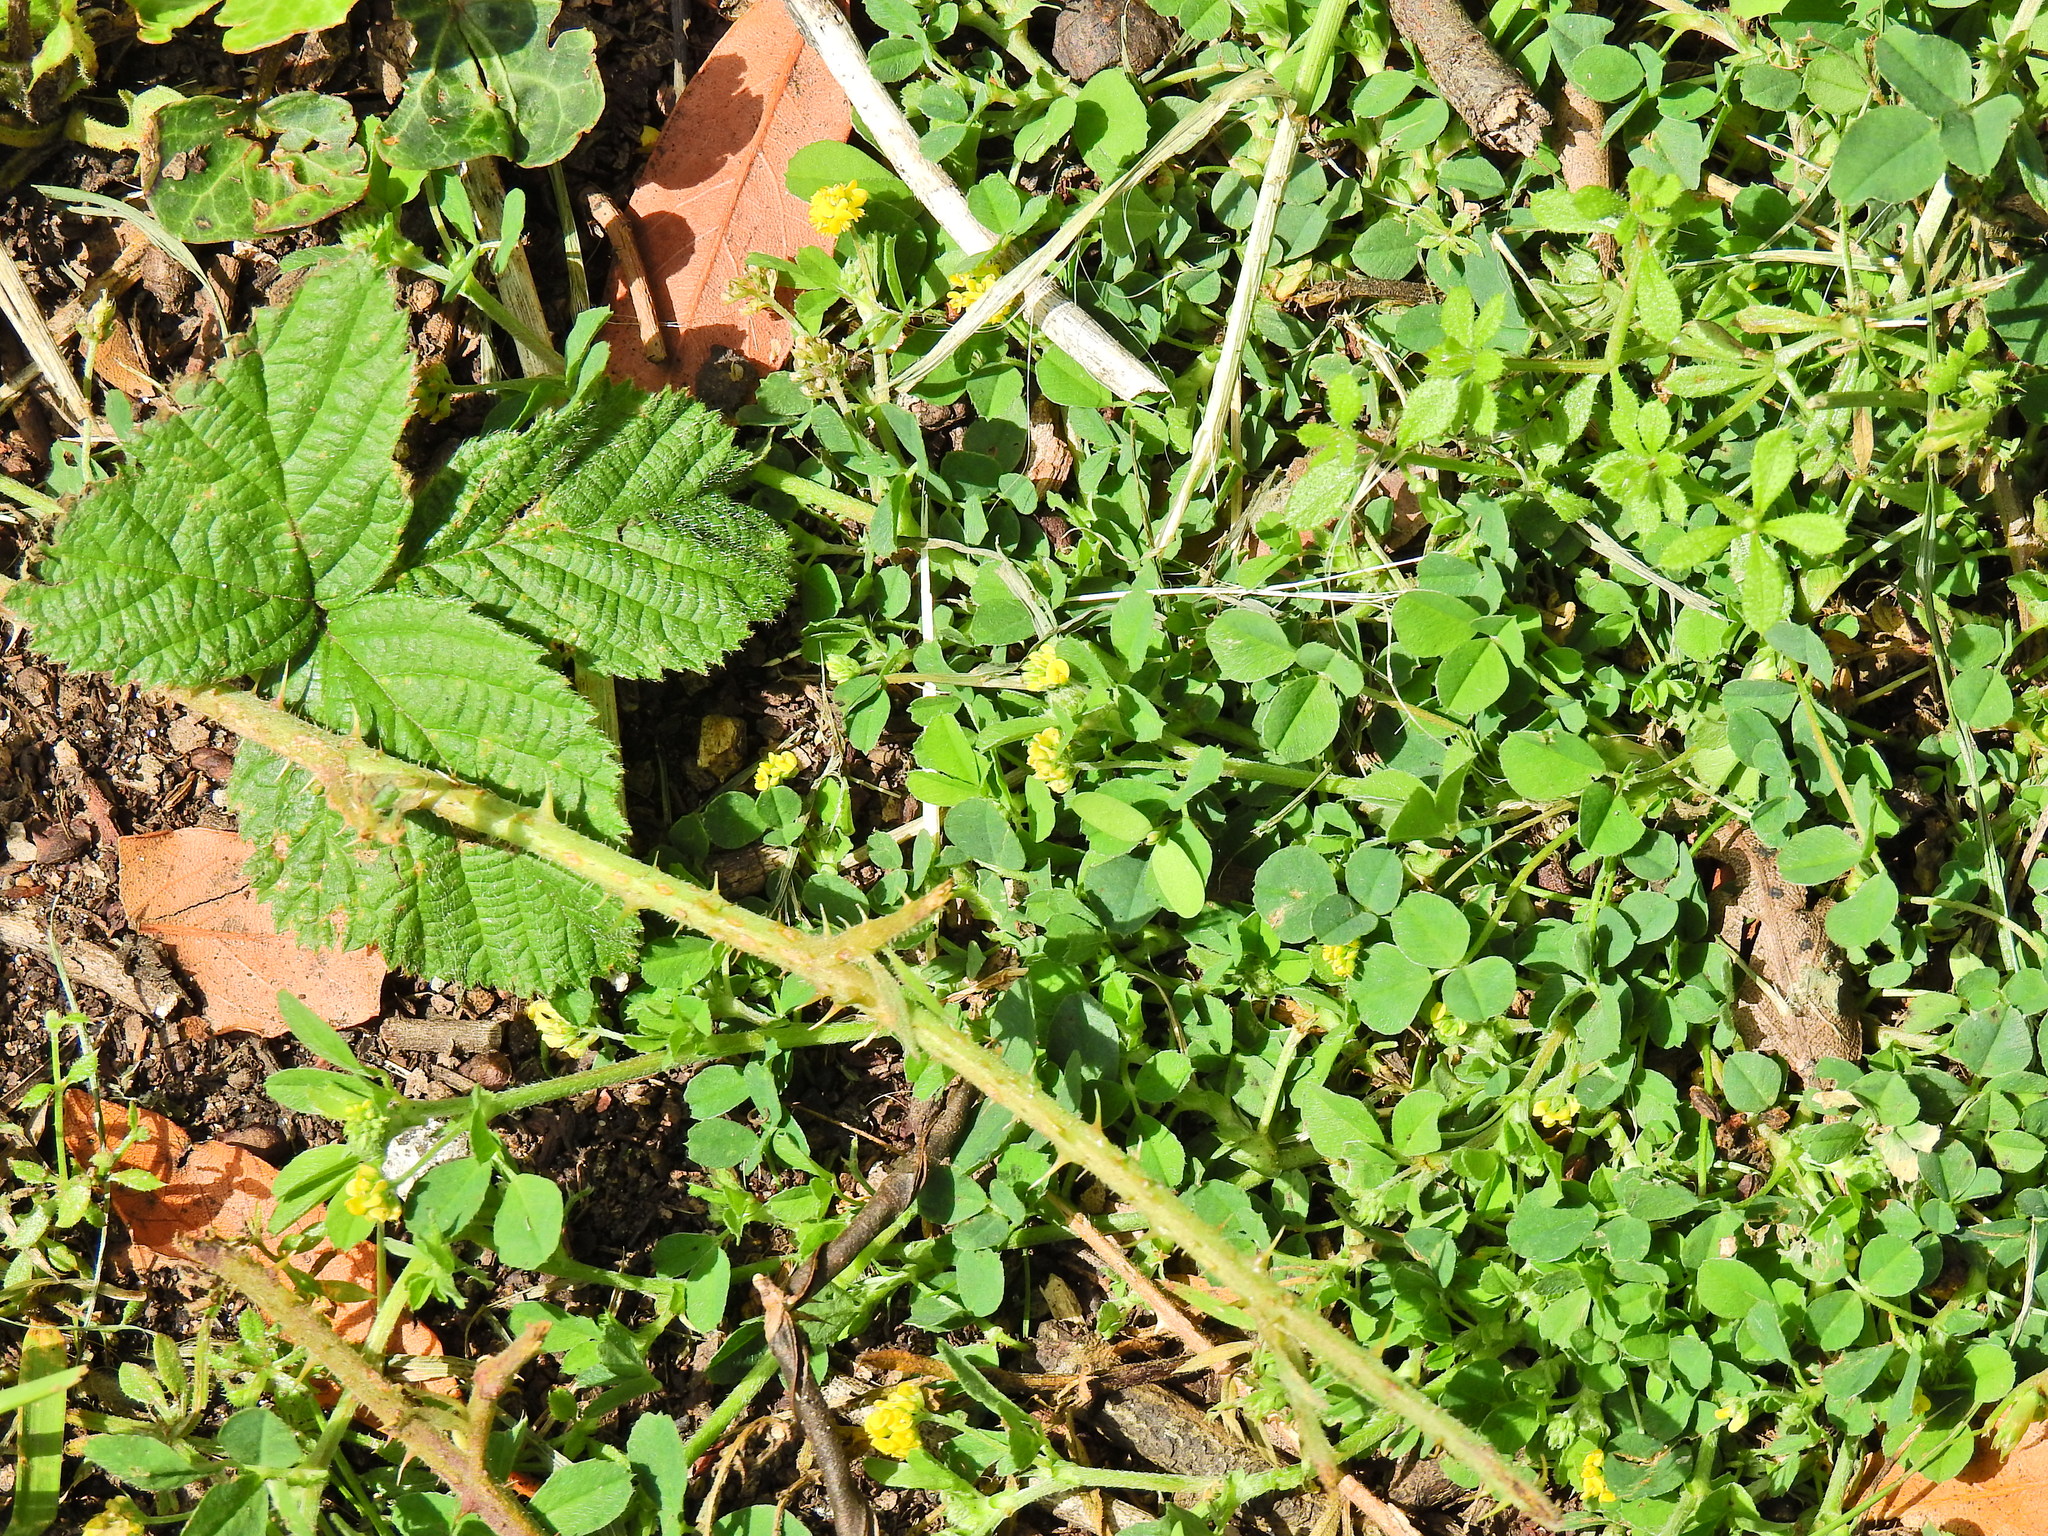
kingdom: Plantae
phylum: Tracheophyta
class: Magnoliopsida
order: Fabales
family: Fabaceae
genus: Medicago
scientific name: Medicago lupulina
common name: Black medick
